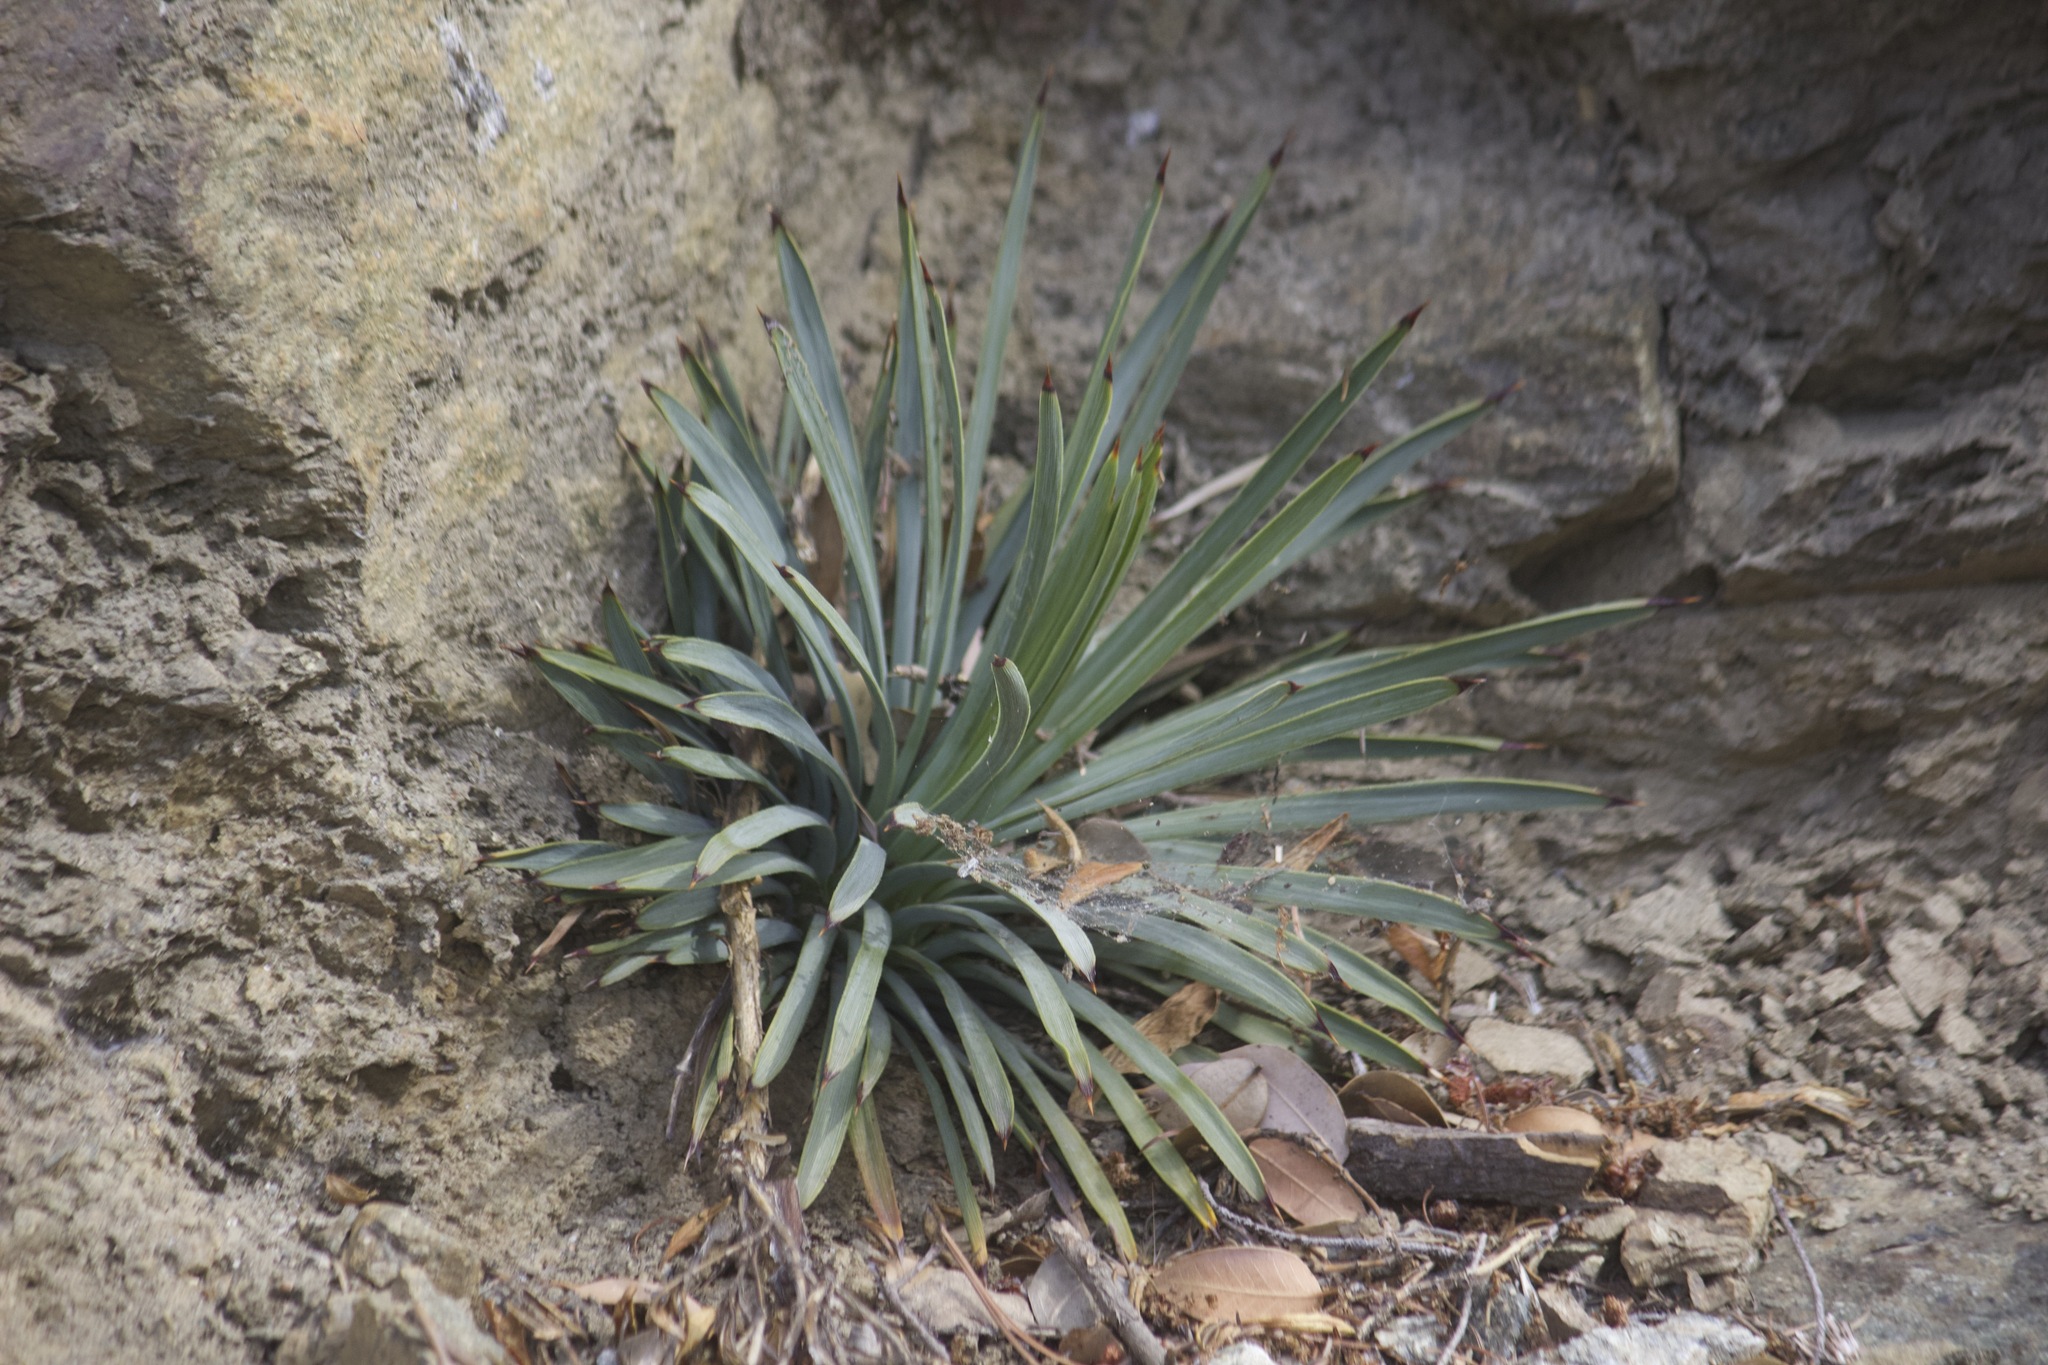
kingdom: Plantae
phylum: Tracheophyta
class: Liliopsida
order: Asparagales
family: Asparagaceae
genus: Hesperoyucca
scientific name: Hesperoyucca whipplei
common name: Our lord's-candle
